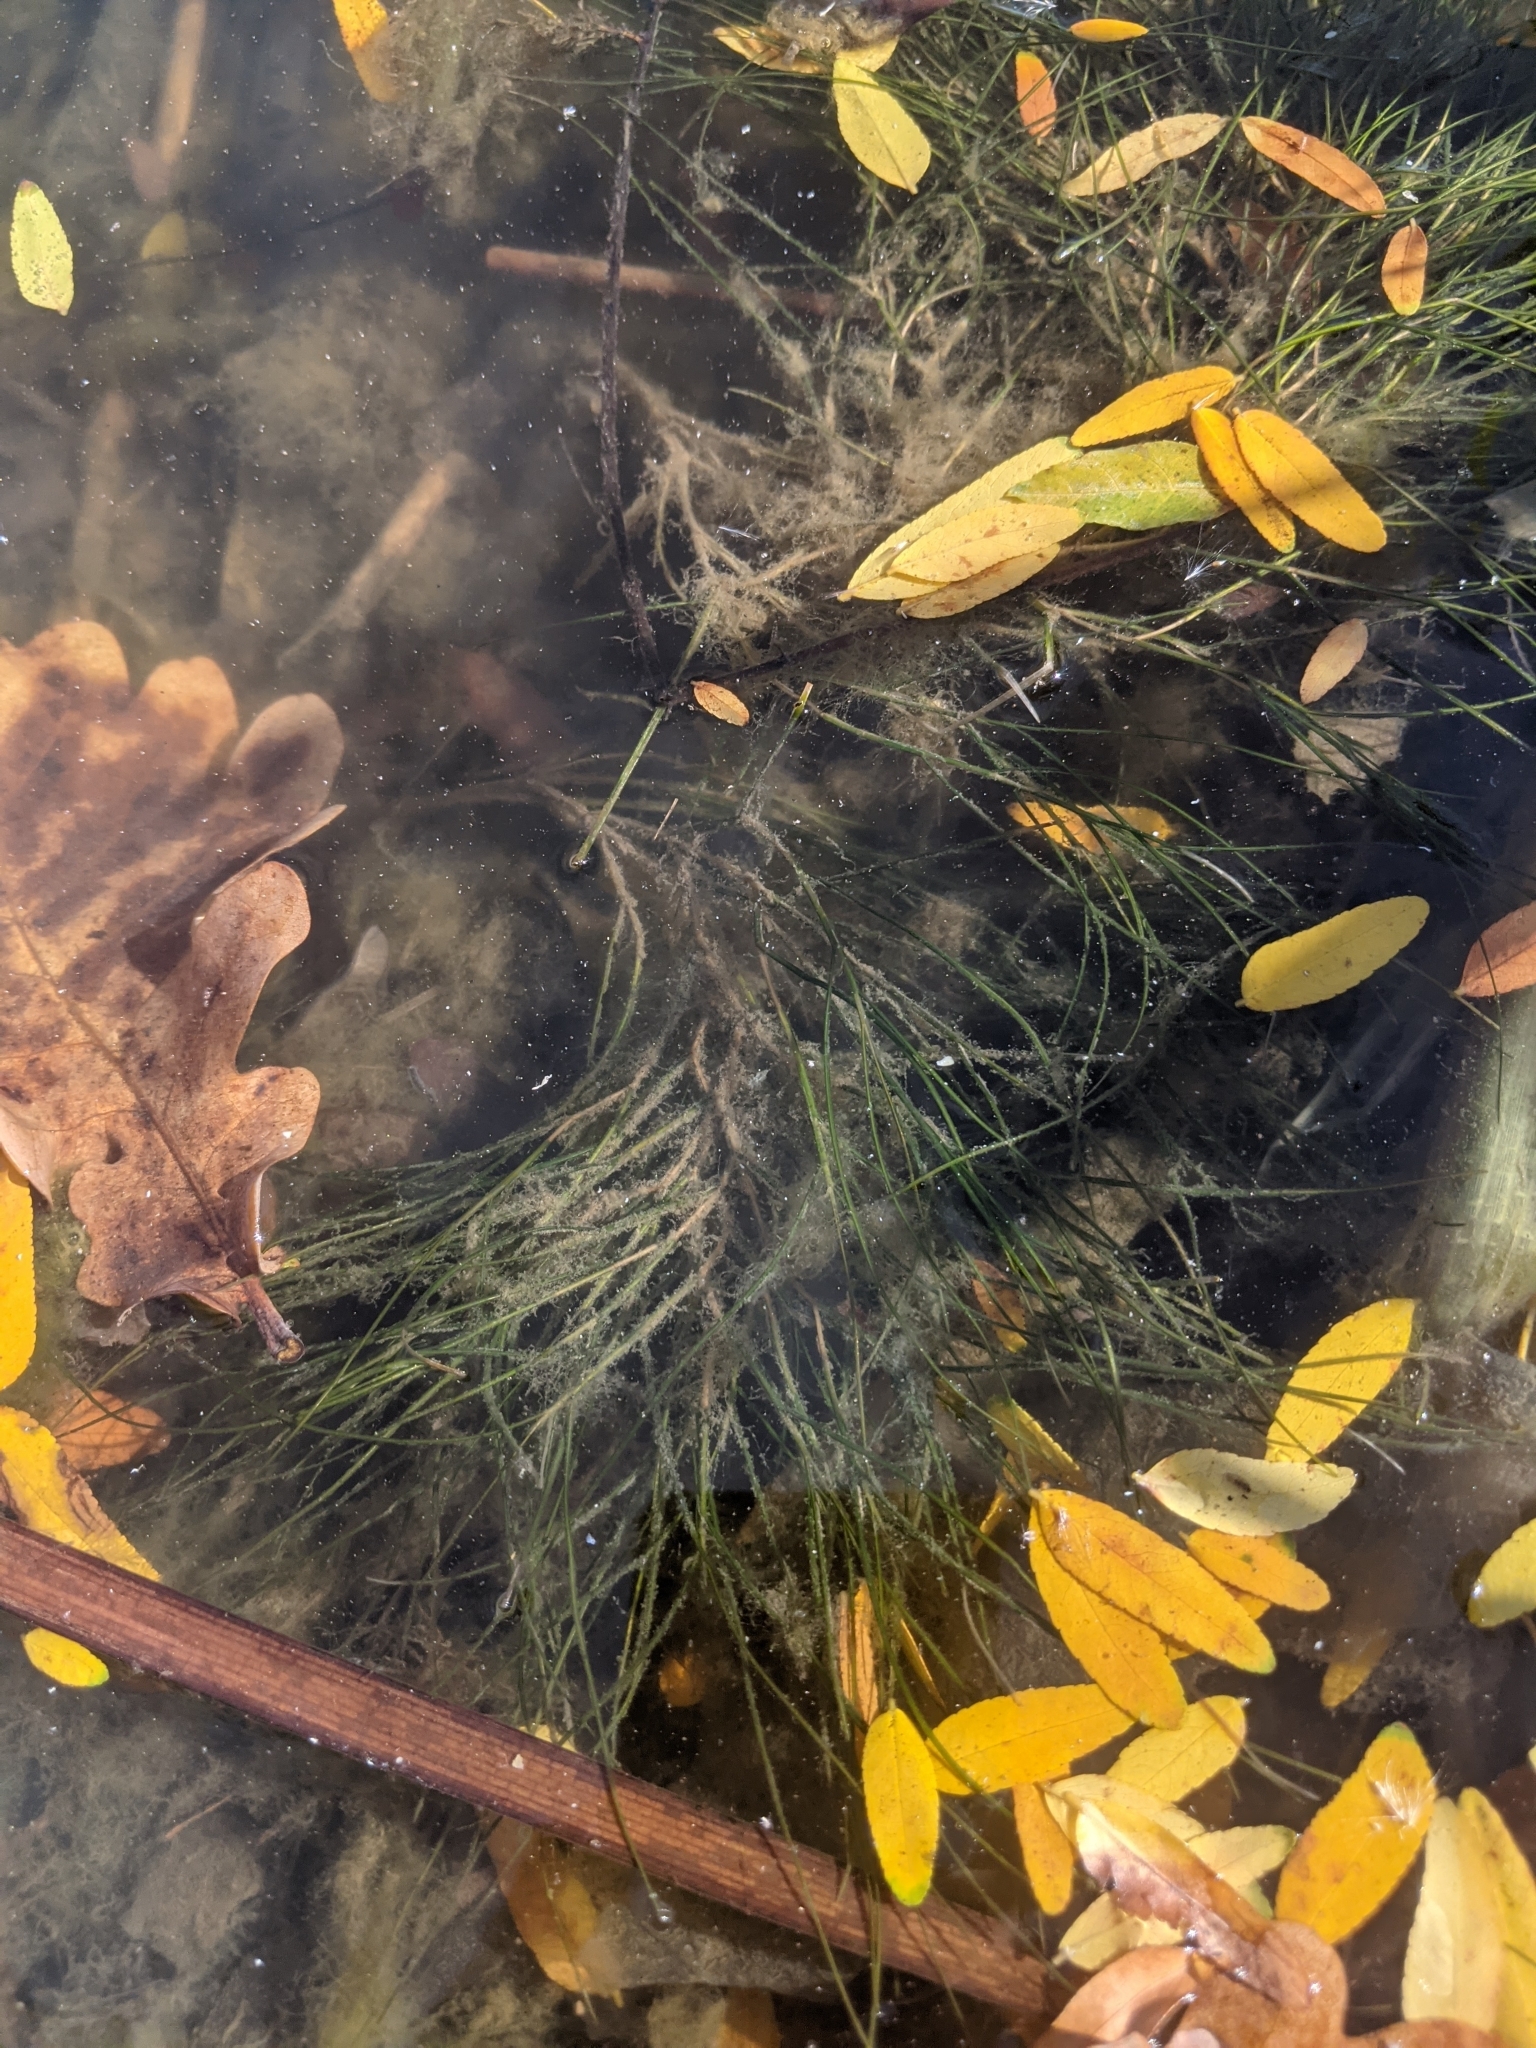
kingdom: Plantae
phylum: Tracheophyta
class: Liliopsida
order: Alismatales
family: Potamogetonaceae
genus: Stuckenia
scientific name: Stuckenia pectinata
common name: Sago pondweed
